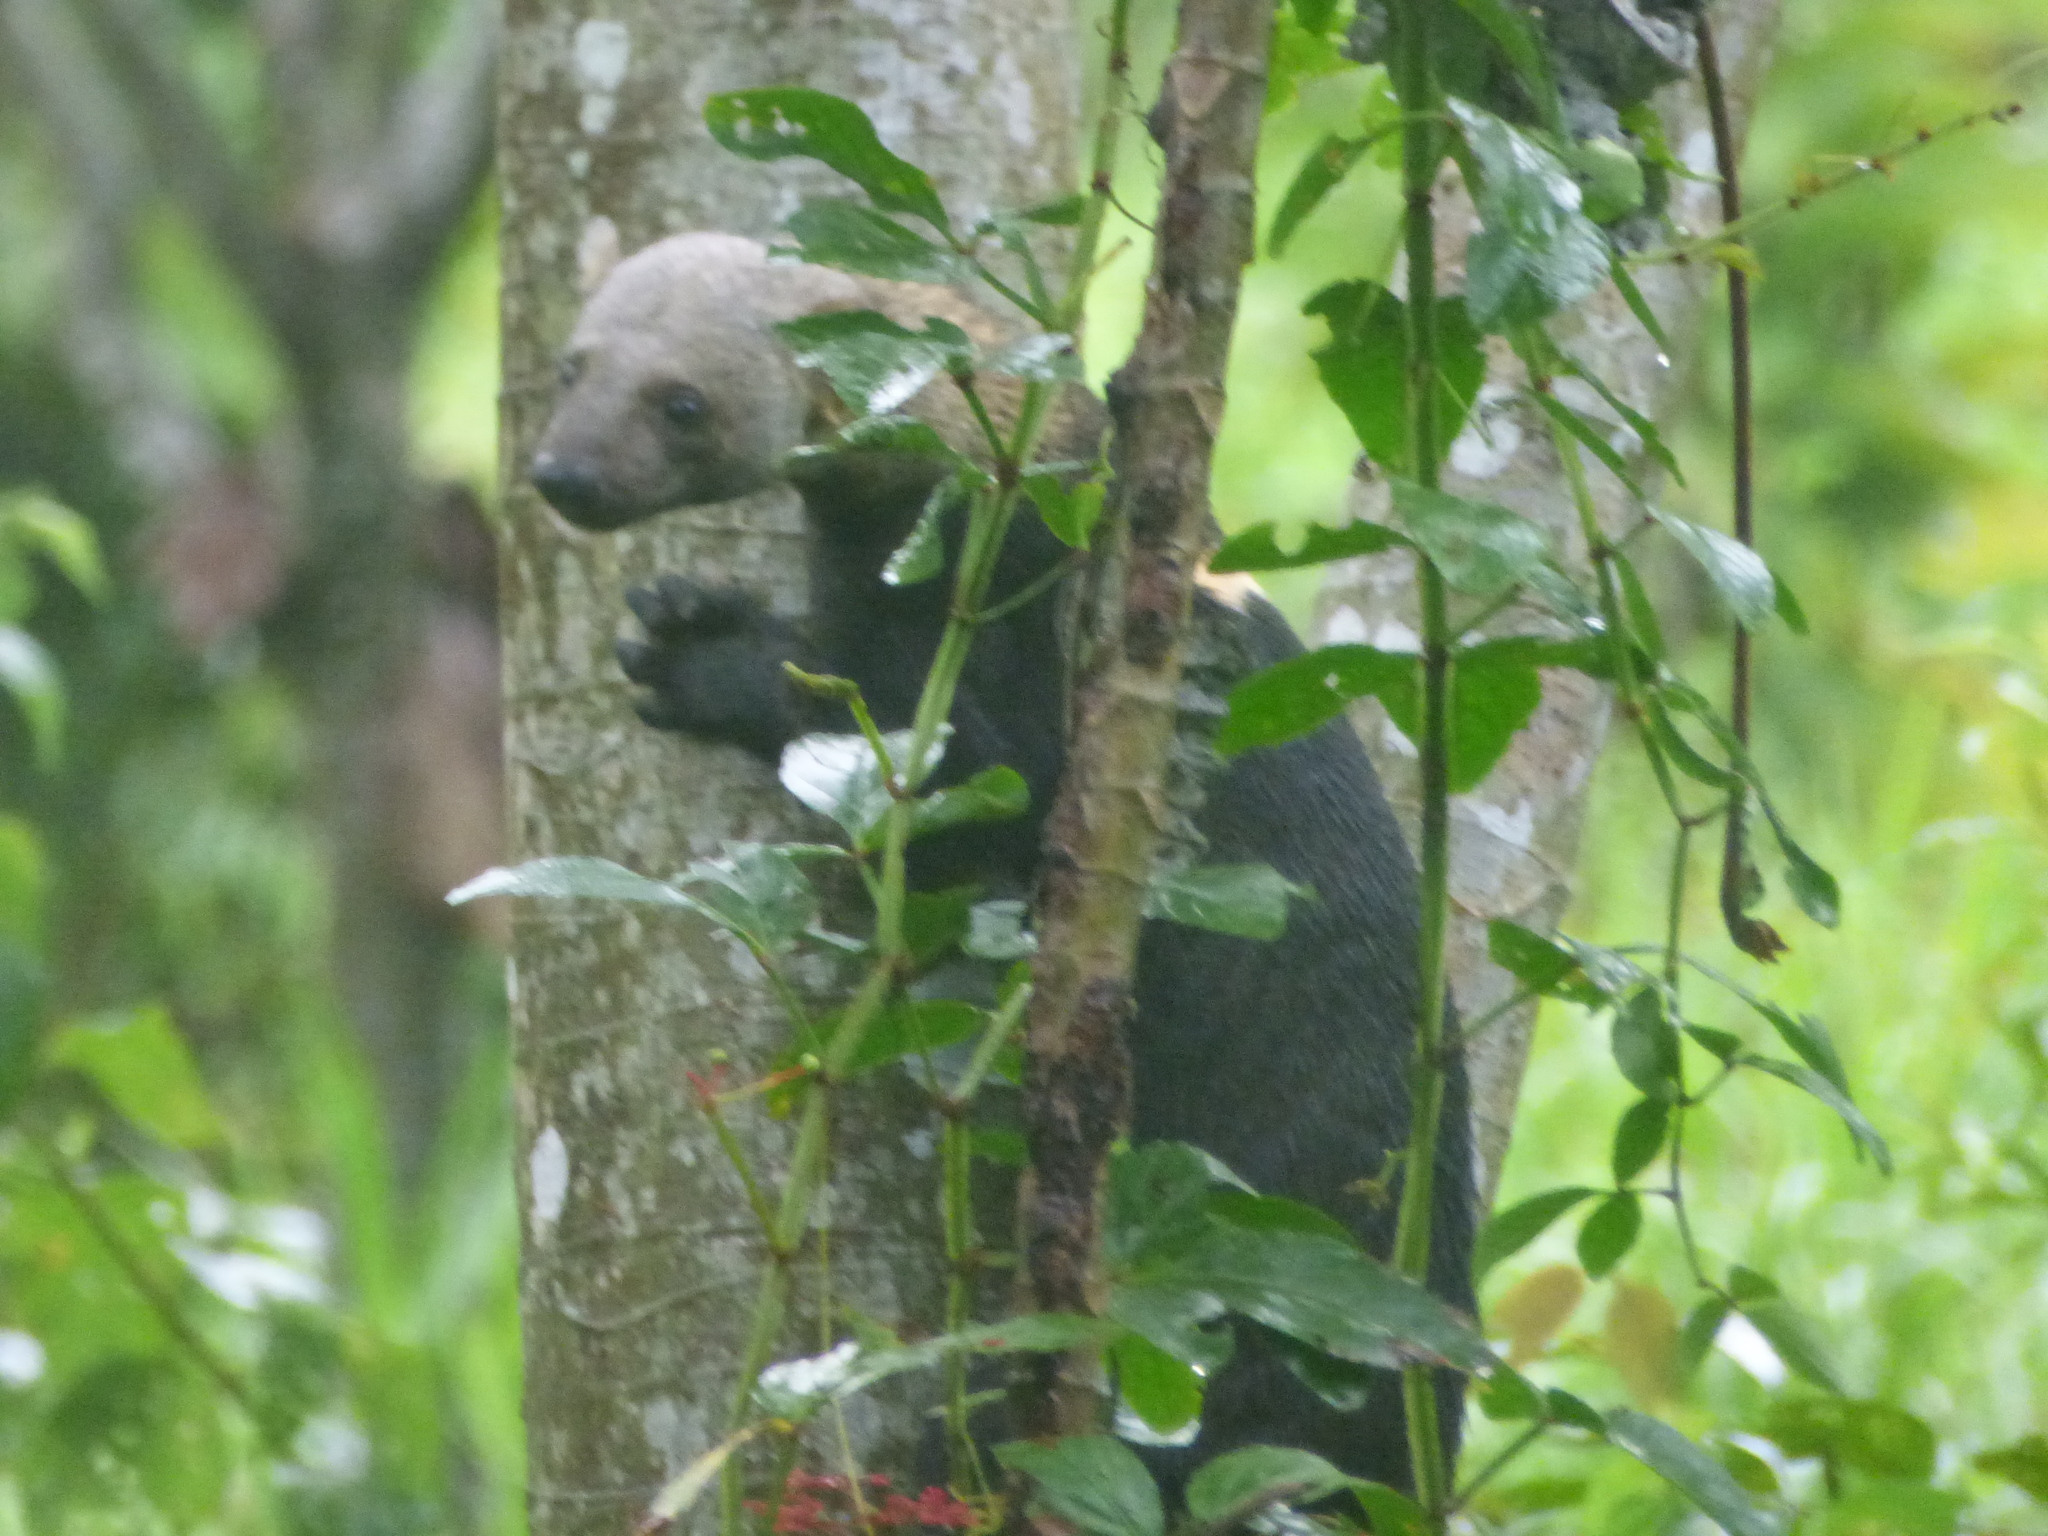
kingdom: Animalia
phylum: Chordata
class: Mammalia
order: Carnivora
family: Mustelidae
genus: Eira
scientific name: Eira barbara
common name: Tayra
